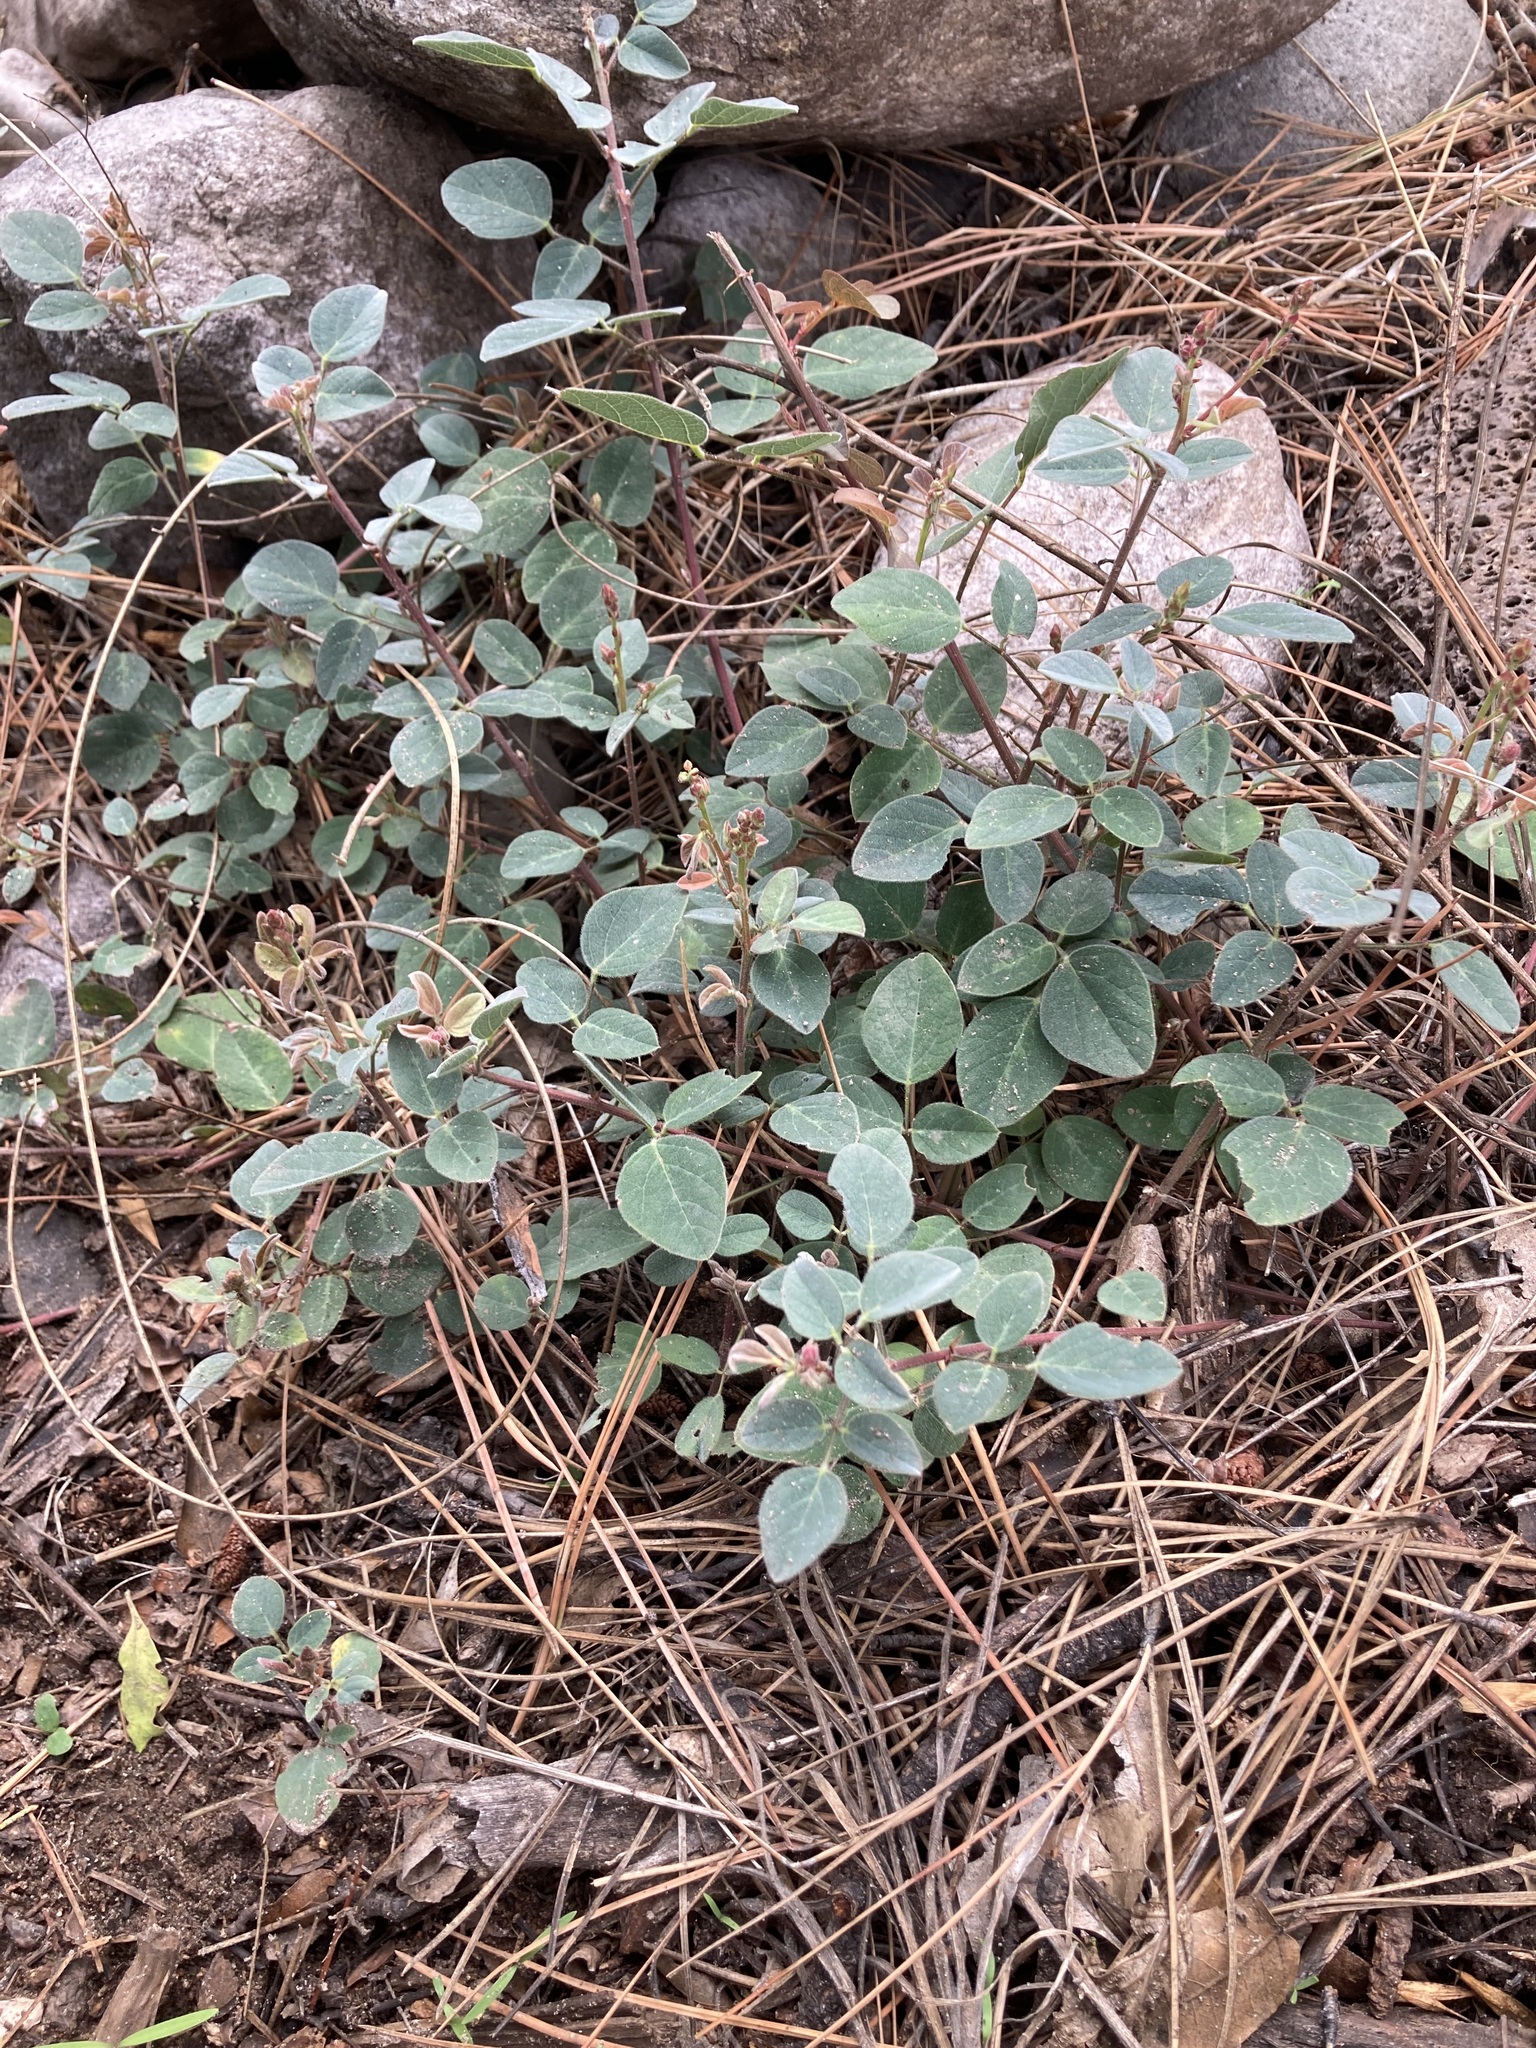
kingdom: Plantae
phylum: Tracheophyta
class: Magnoliopsida
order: Fabales
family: Fabaceae
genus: Phaseolus
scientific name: Phaseolus maculatus
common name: Metcalfe bean
